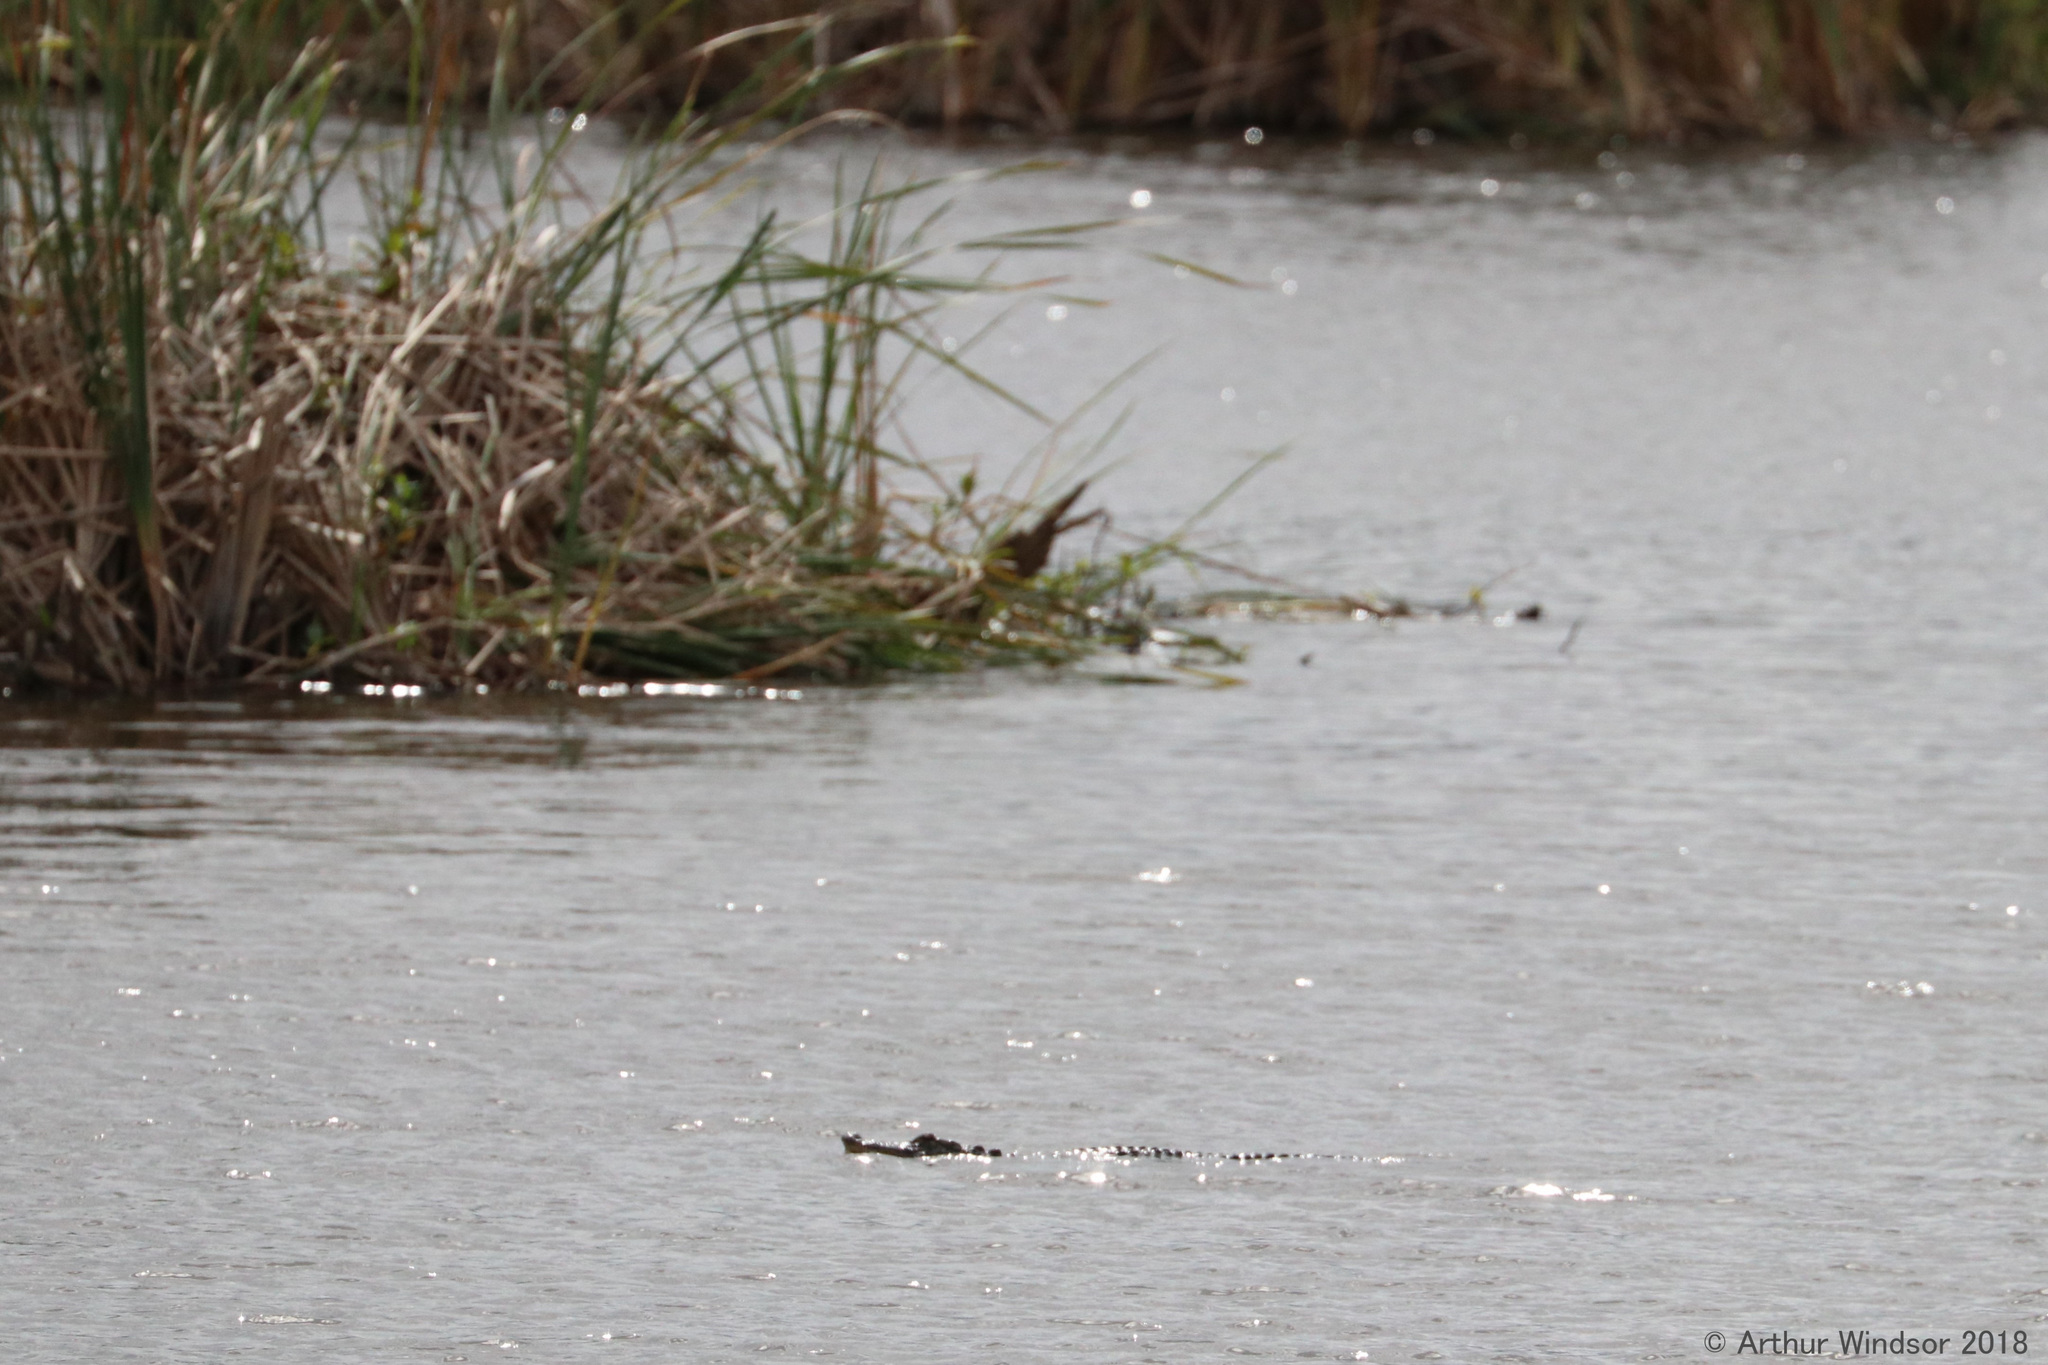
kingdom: Animalia
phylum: Chordata
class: Crocodylia
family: Alligatoridae
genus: Alligator
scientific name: Alligator mississippiensis
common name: American alligator
